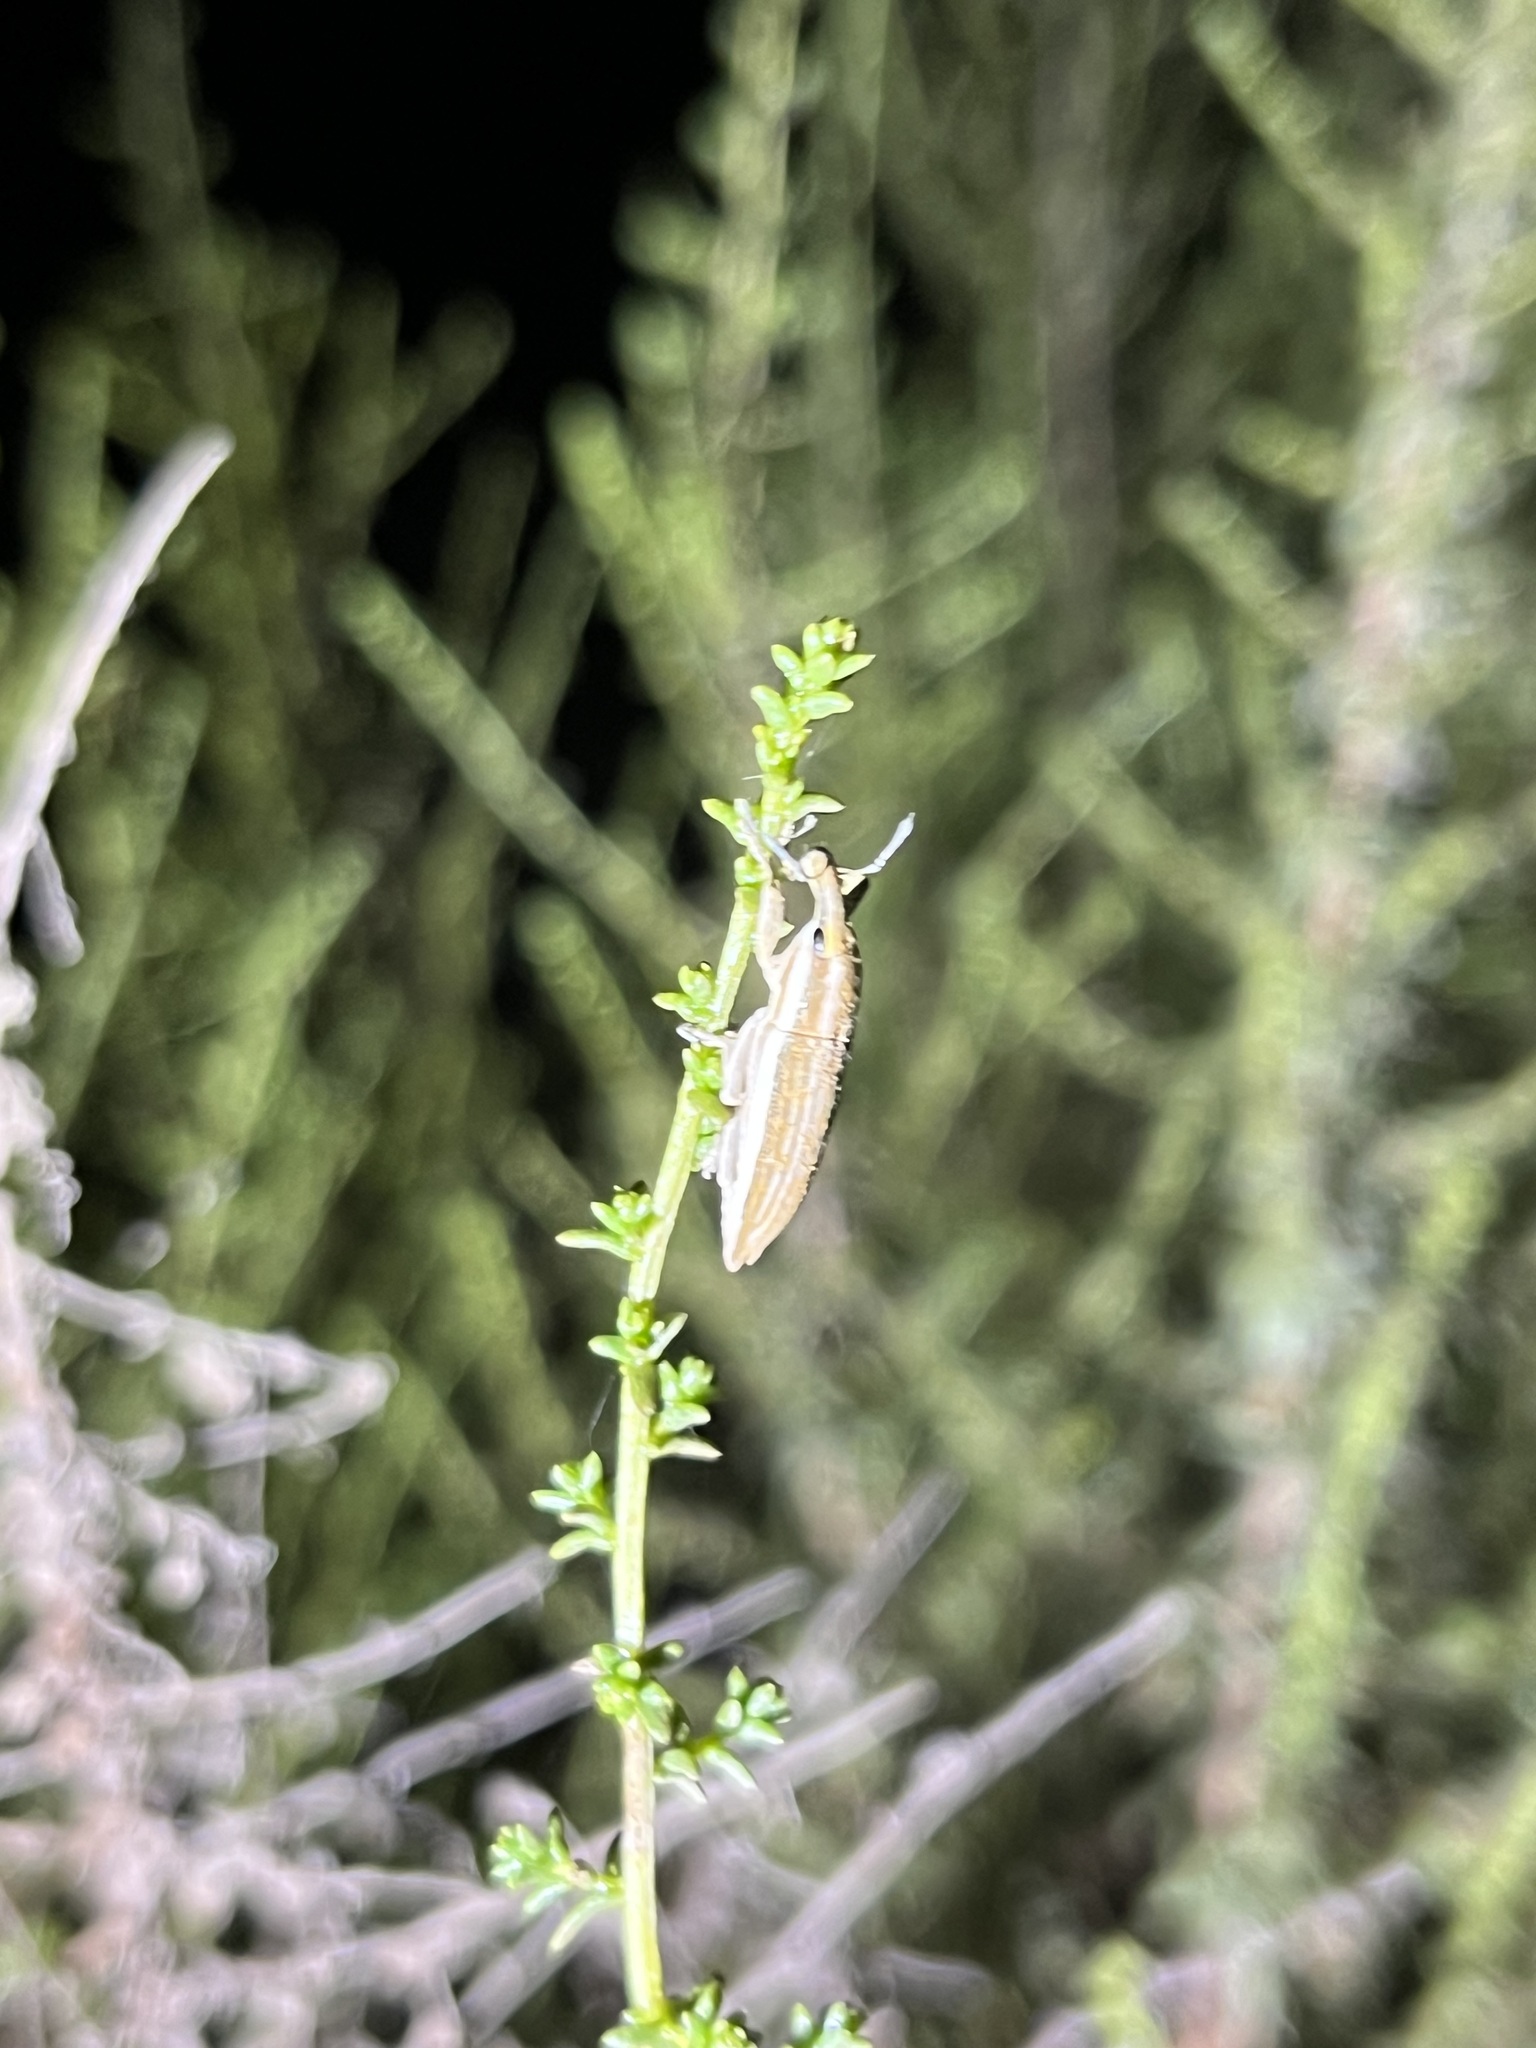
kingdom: Animalia
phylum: Arthropoda
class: Insecta
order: Coleoptera
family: Curculionidae
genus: Lixus
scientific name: Lixus anguinus
